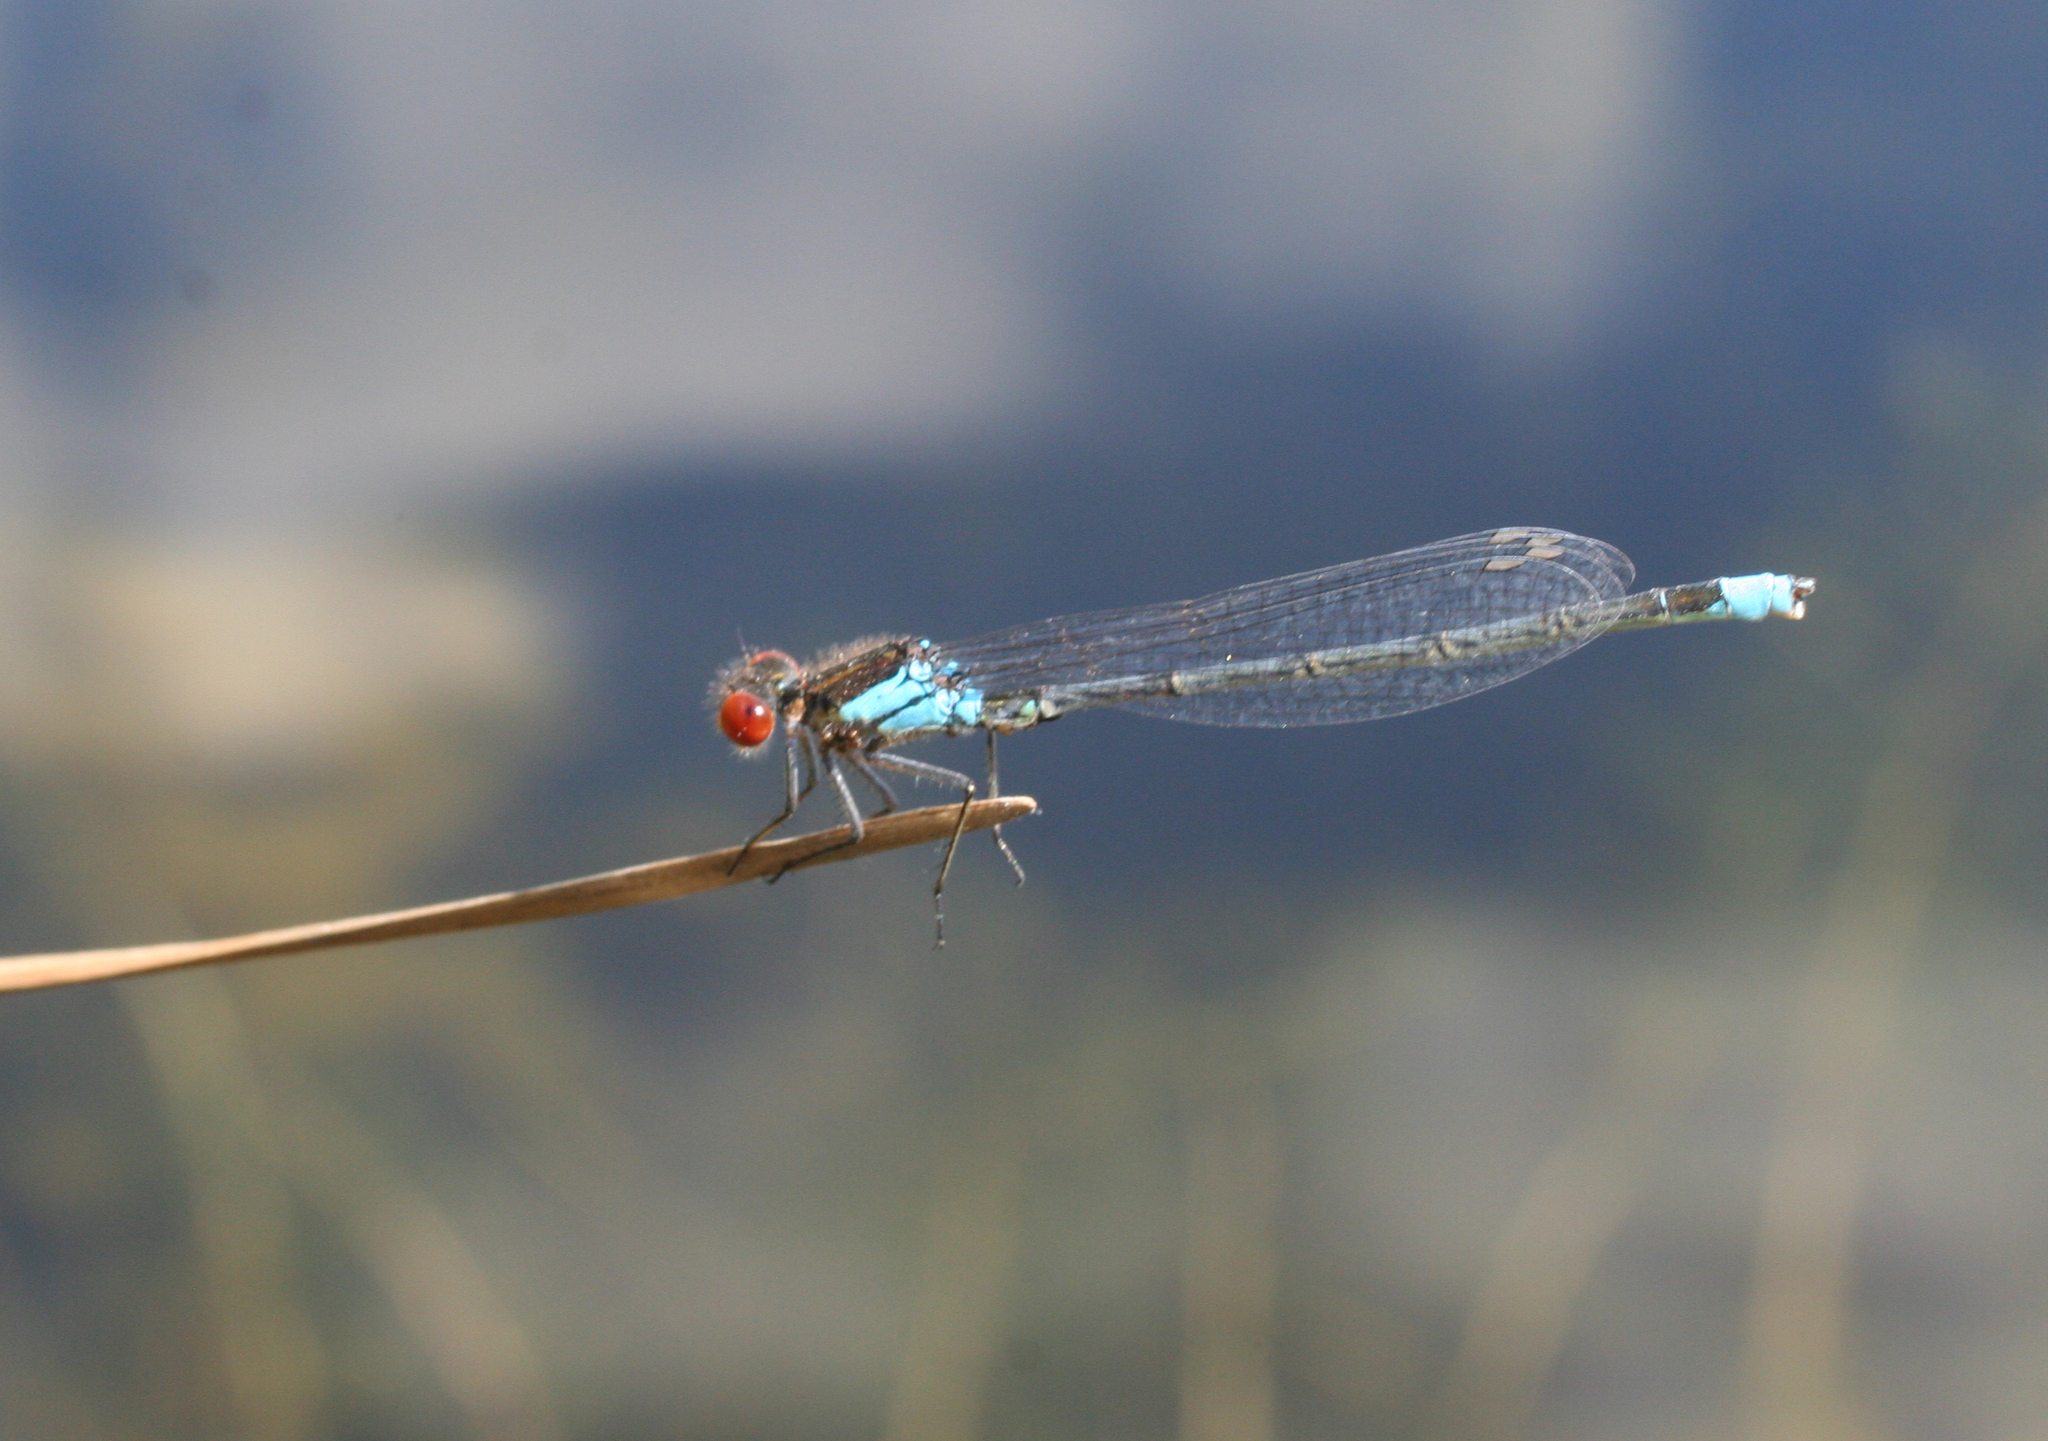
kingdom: Animalia
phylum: Arthropoda
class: Insecta
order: Odonata
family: Coenagrionidae
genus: Erythromma
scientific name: Erythromma najas
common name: Red-eyed damselfly
